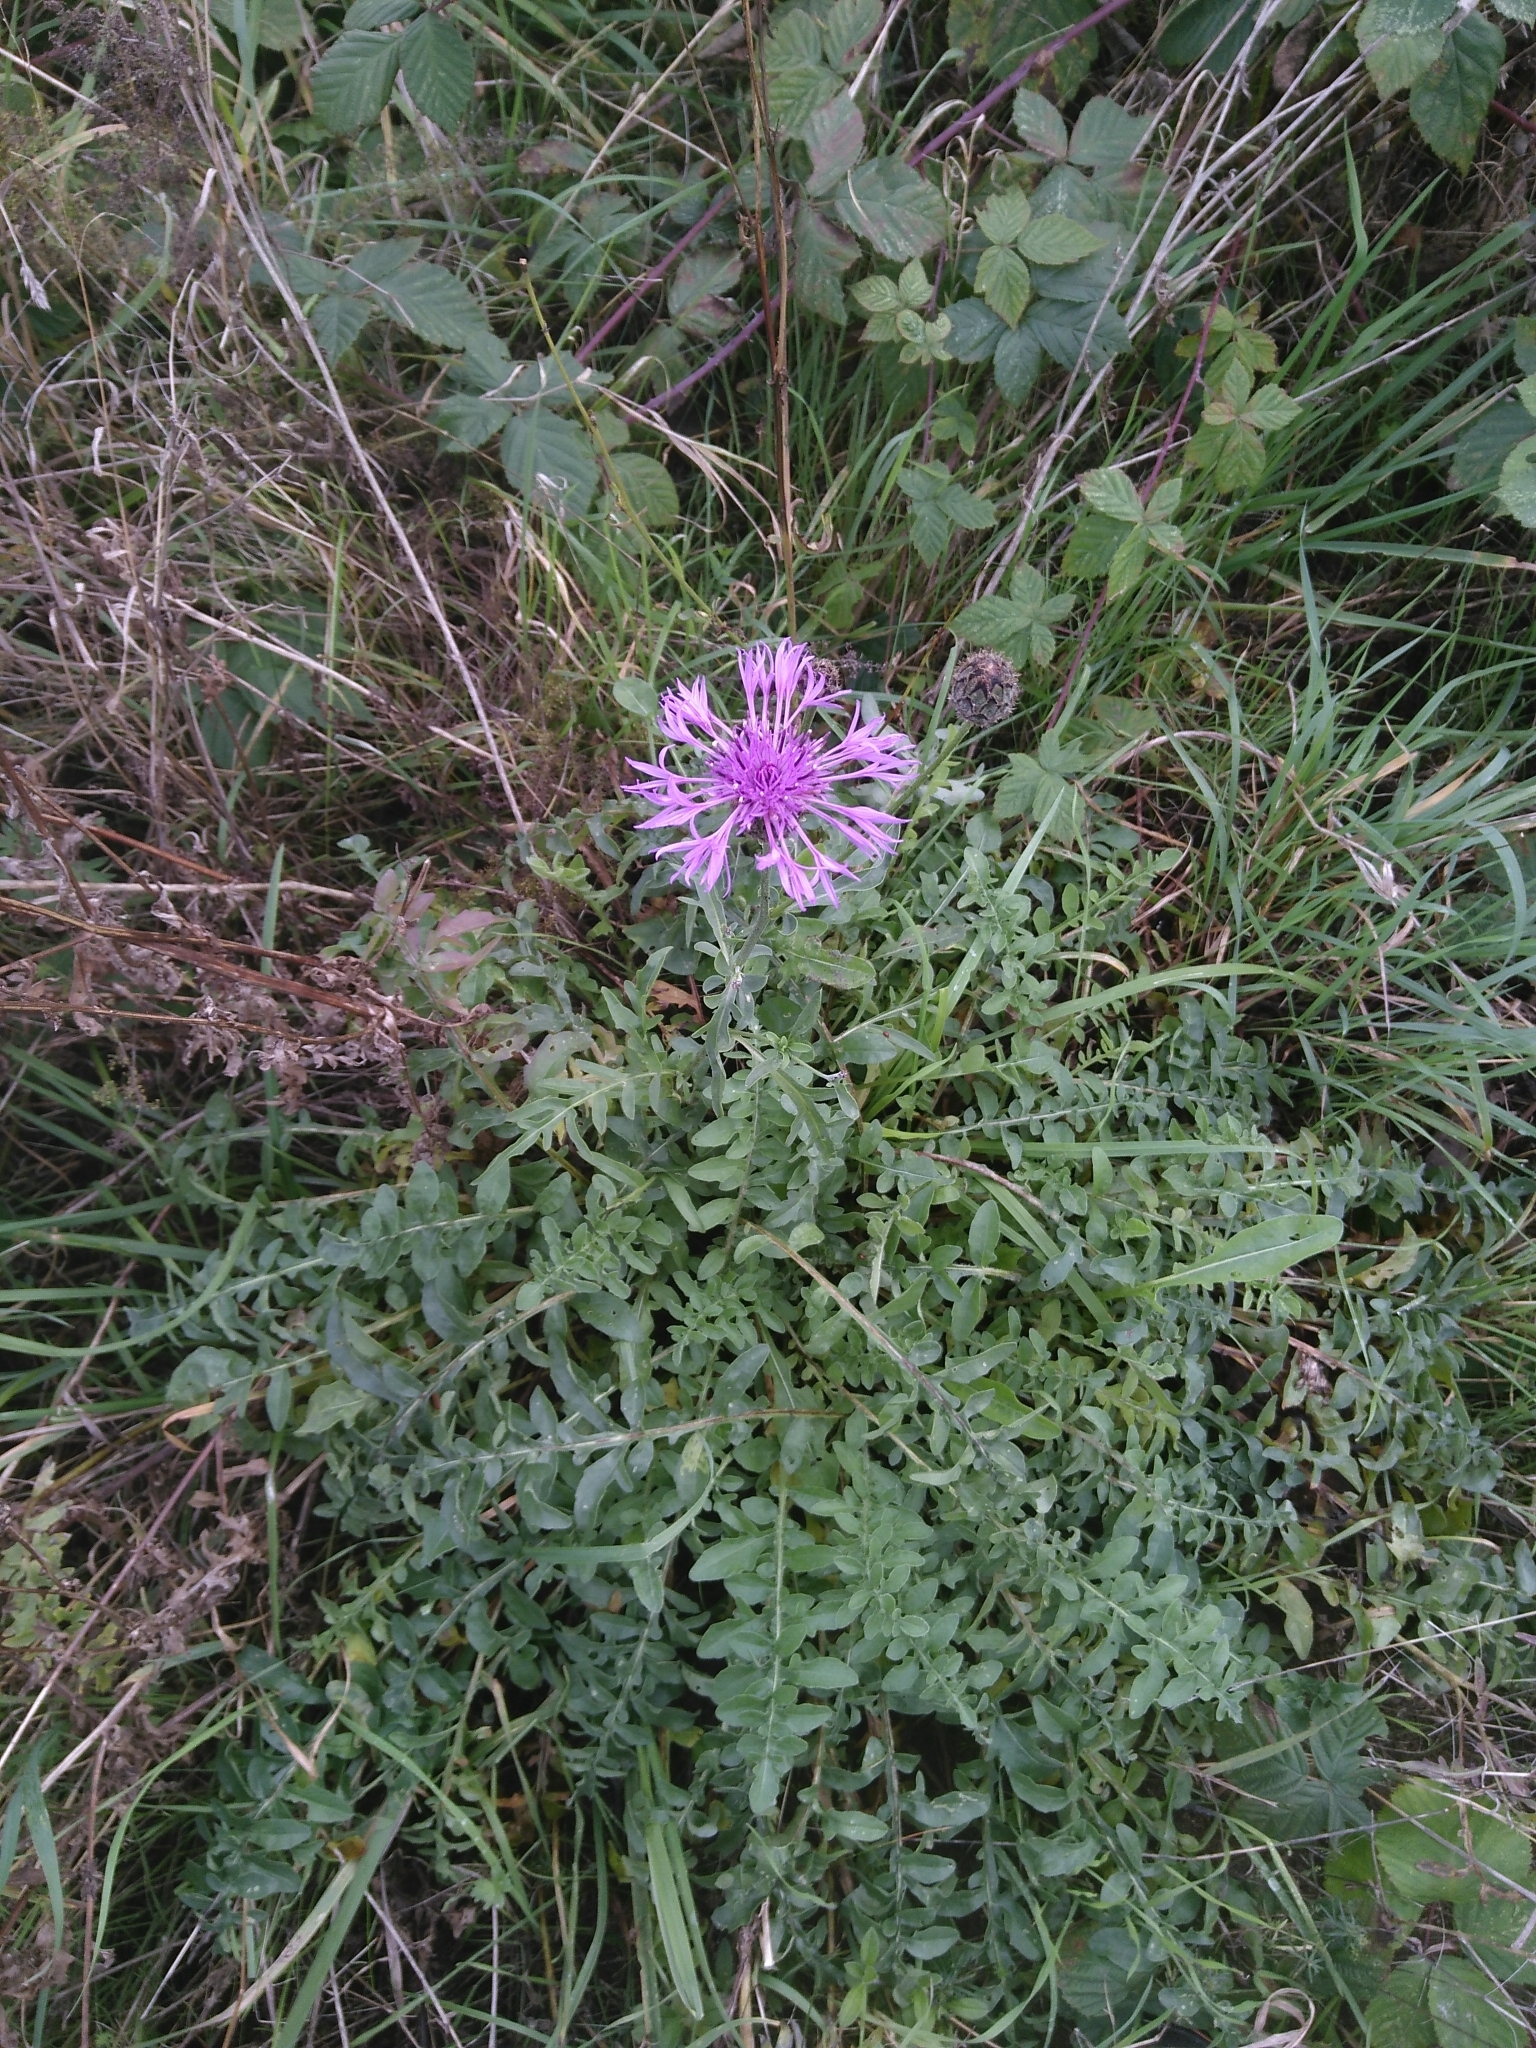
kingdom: Plantae
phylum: Tracheophyta
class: Magnoliopsida
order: Asterales
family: Asteraceae
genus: Centaurea
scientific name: Centaurea scabiosa
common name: Greater knapweed
